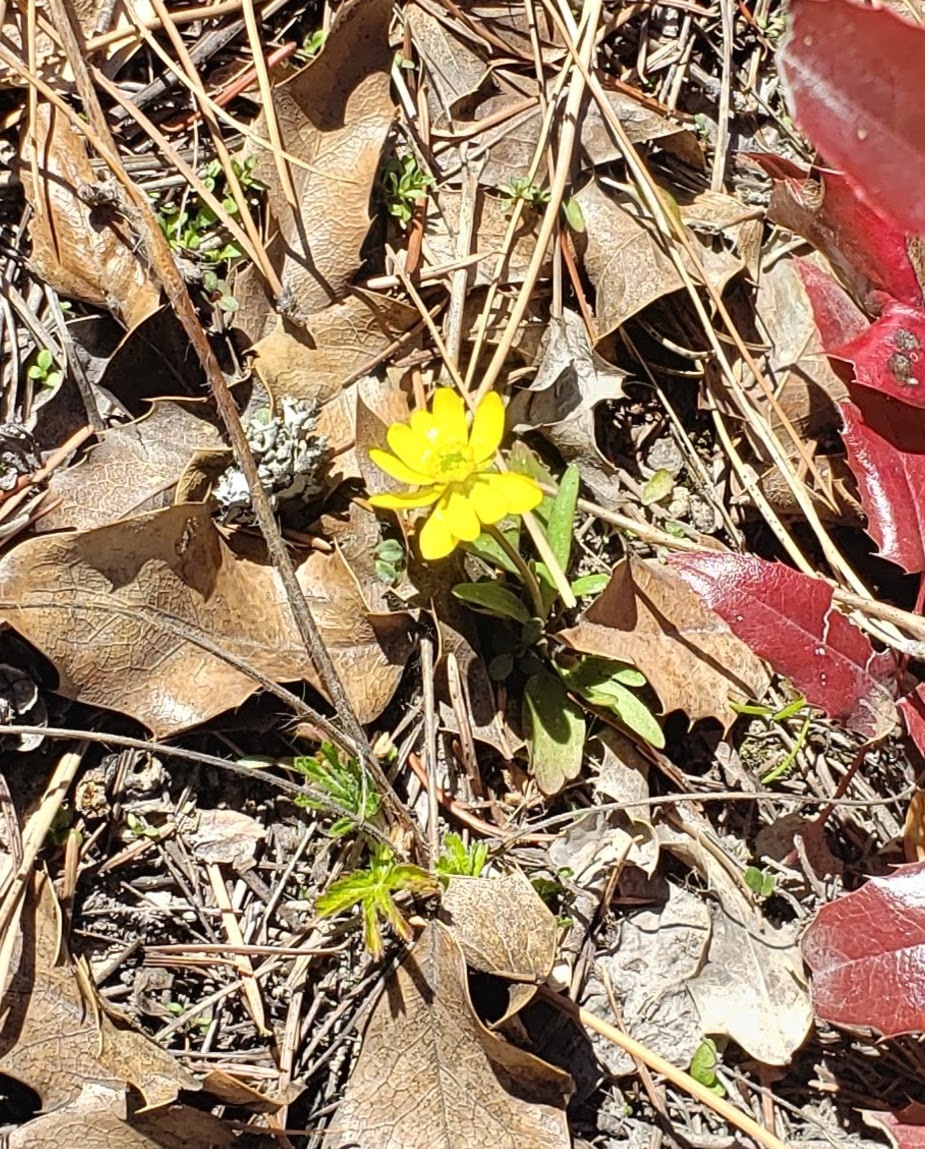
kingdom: Plantae
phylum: Tracheophyta
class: Magnoliopsida
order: Ranunculales
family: Ranunculaceae
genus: Ranunculus
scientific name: Ranunculus glaberrimus
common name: Sagebrush buttercup
